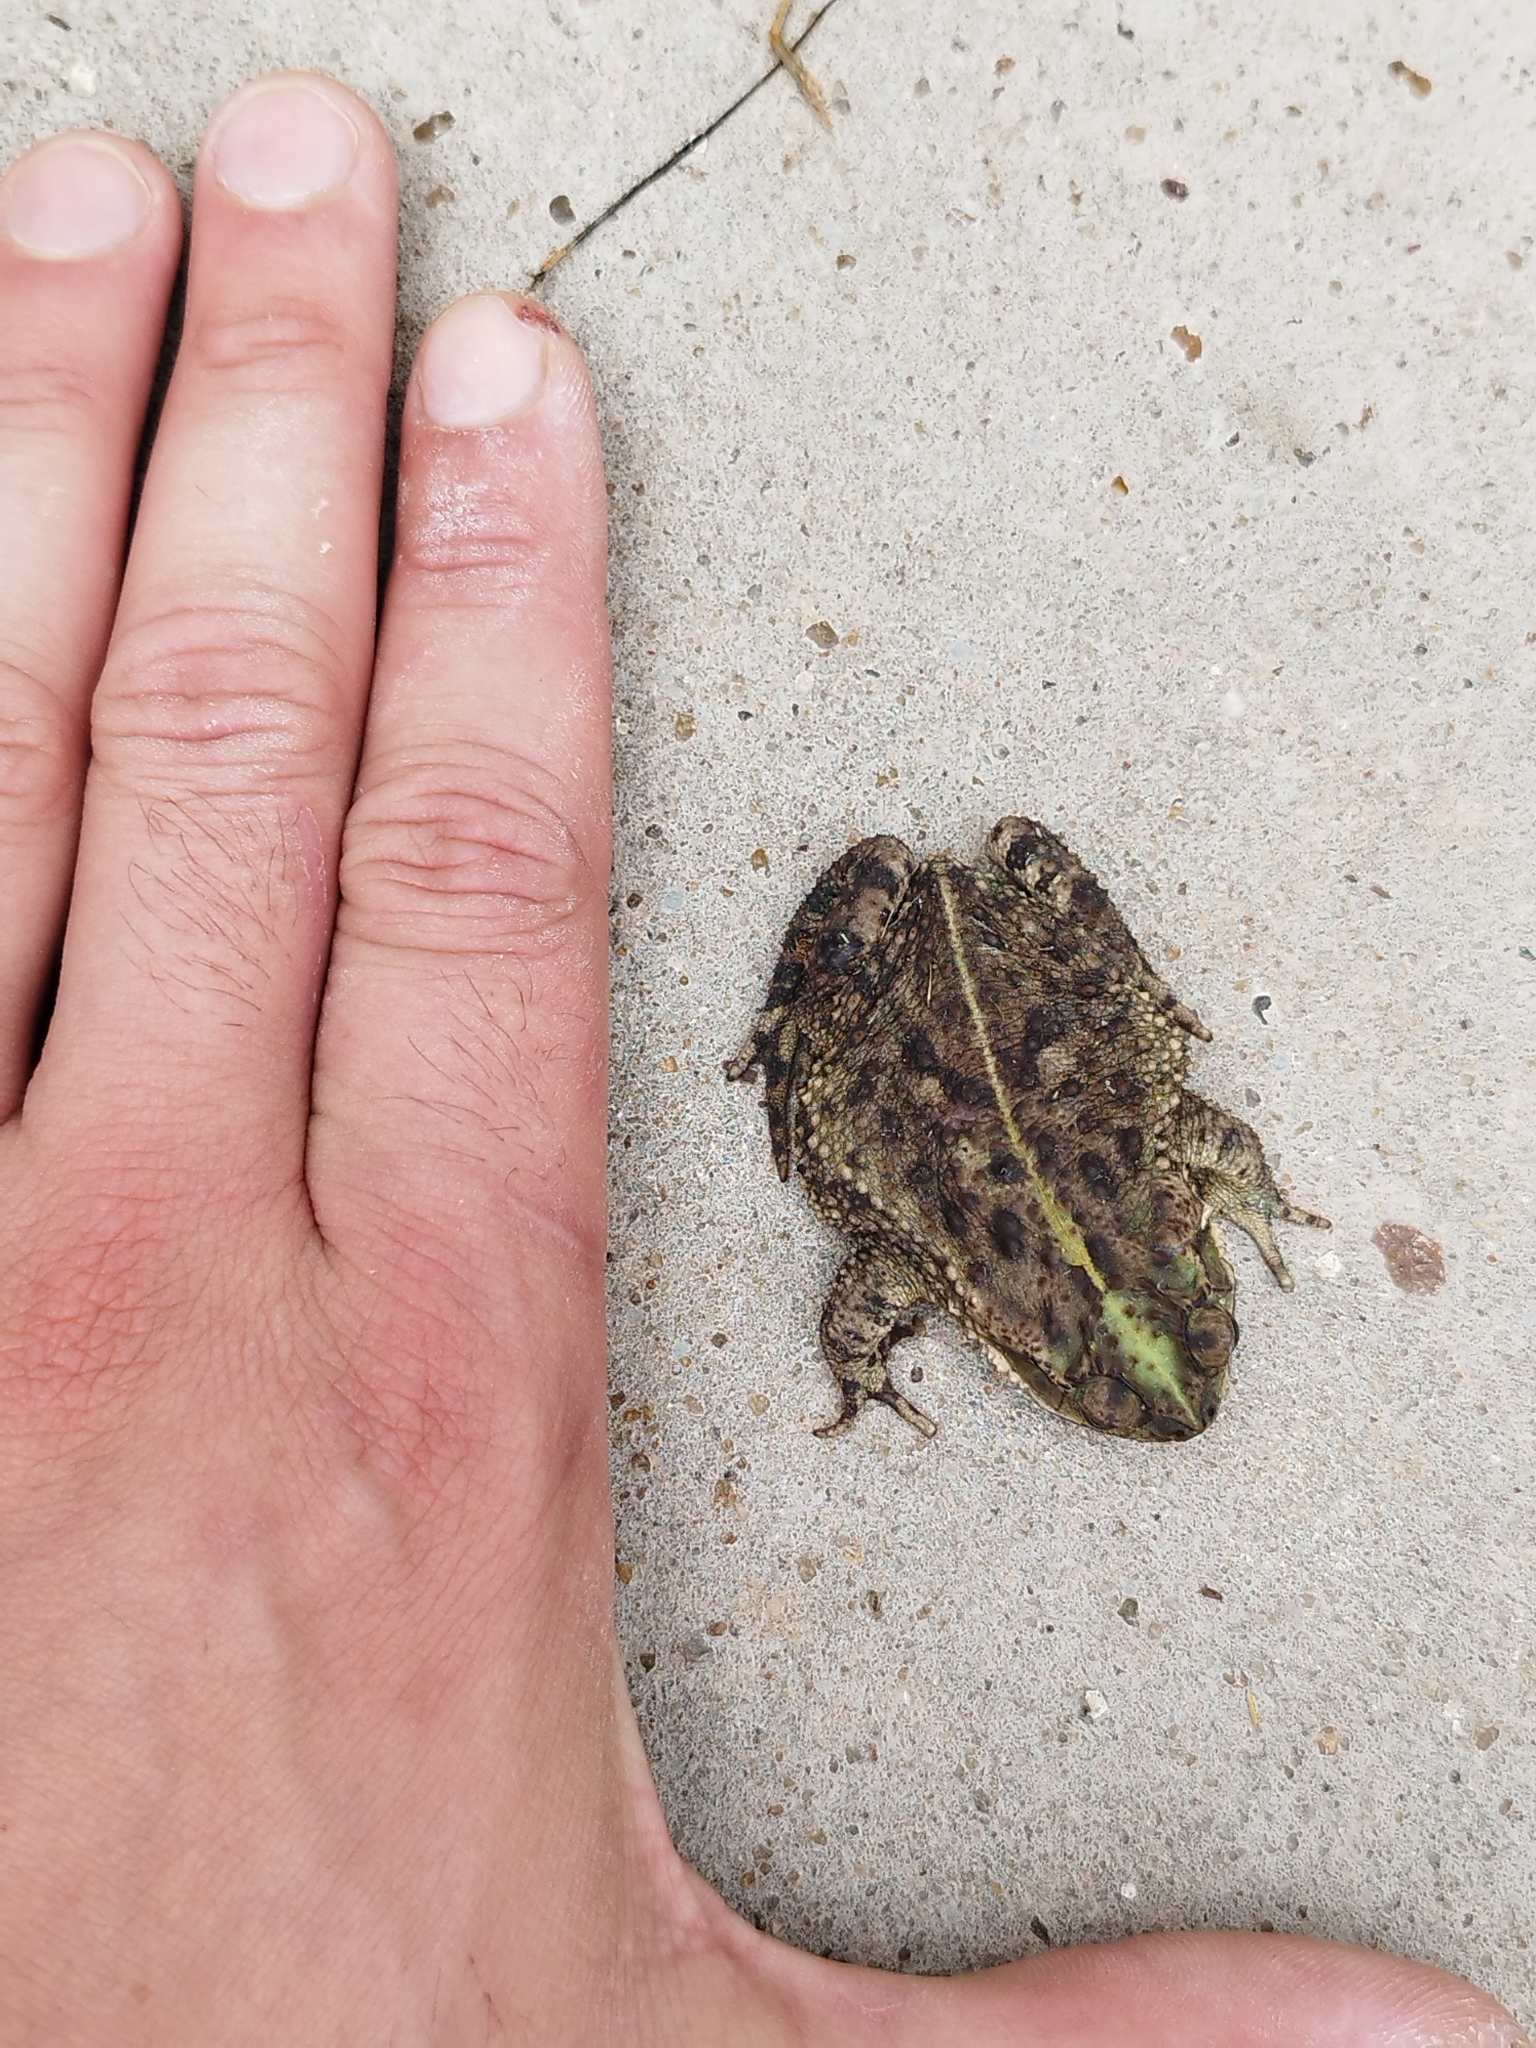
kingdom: Animalia
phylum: Chordata
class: Amphibia
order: Anura
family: Bufonidae
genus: Rhinella
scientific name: Rhinella dorbignyi
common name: D´orbigny’s toad
